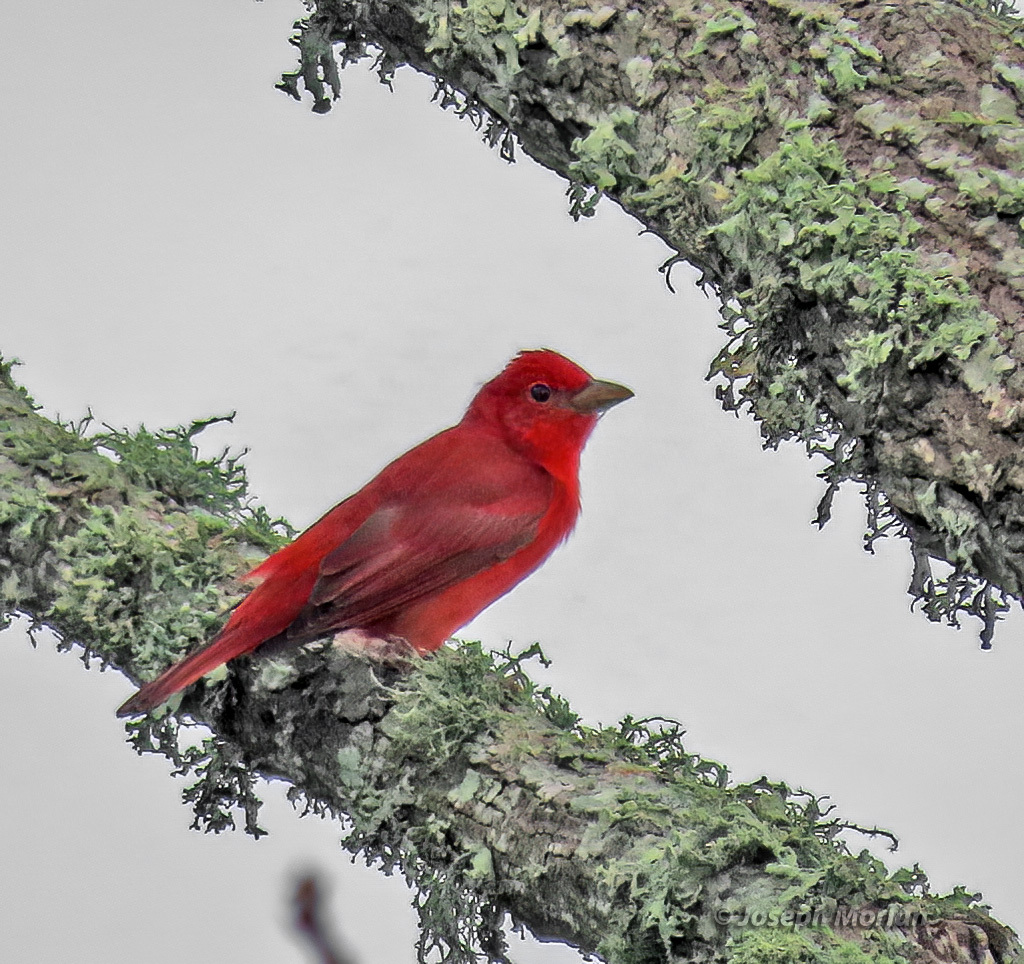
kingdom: Animalia
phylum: Chordata
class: Aves
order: Passeriformes
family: Cardinalidae
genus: Piranga
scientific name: Piranga rubra
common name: Summer tanager
